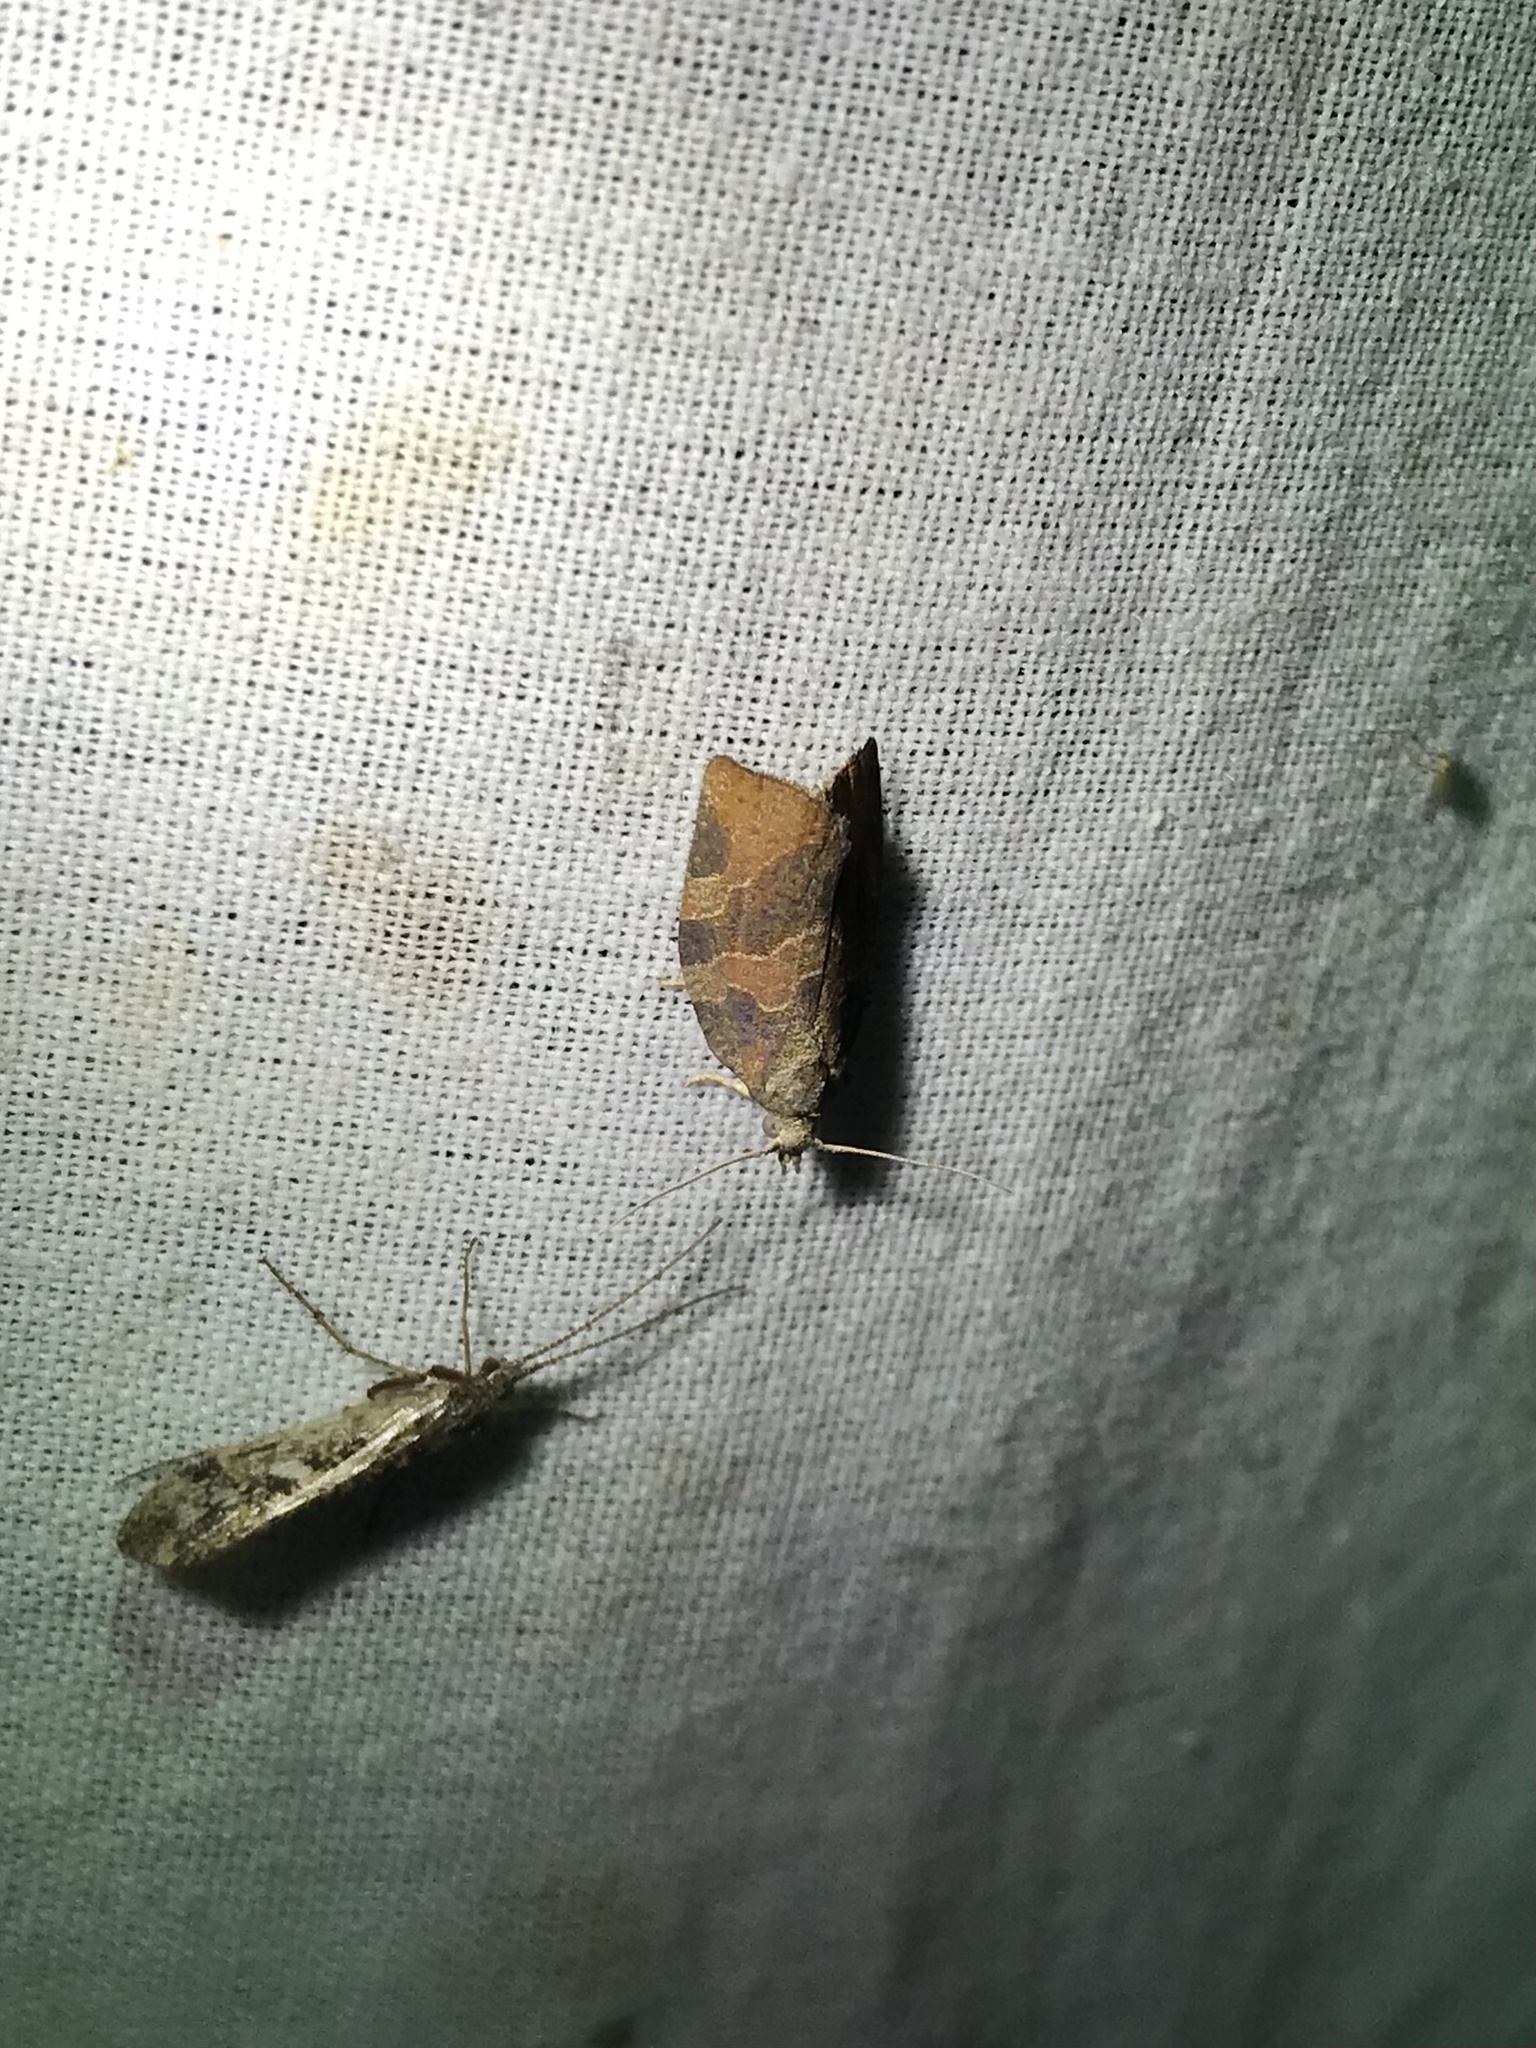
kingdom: Animalia
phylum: Arthropoda
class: Insecta
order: Lepidoptera
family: Tortricidae
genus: Pandemis
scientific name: Pandemis canadana
